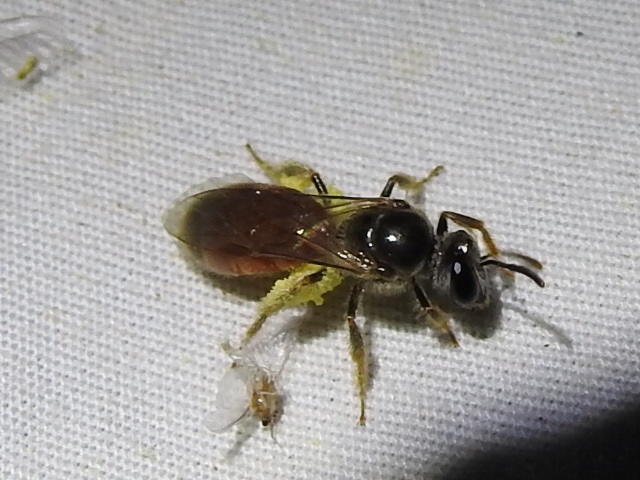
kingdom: Animalia
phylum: Arthropoda
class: Insecta
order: Hymenoptera
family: Halictidae
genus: Lasioglossum
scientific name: Lasioglossum texanum
